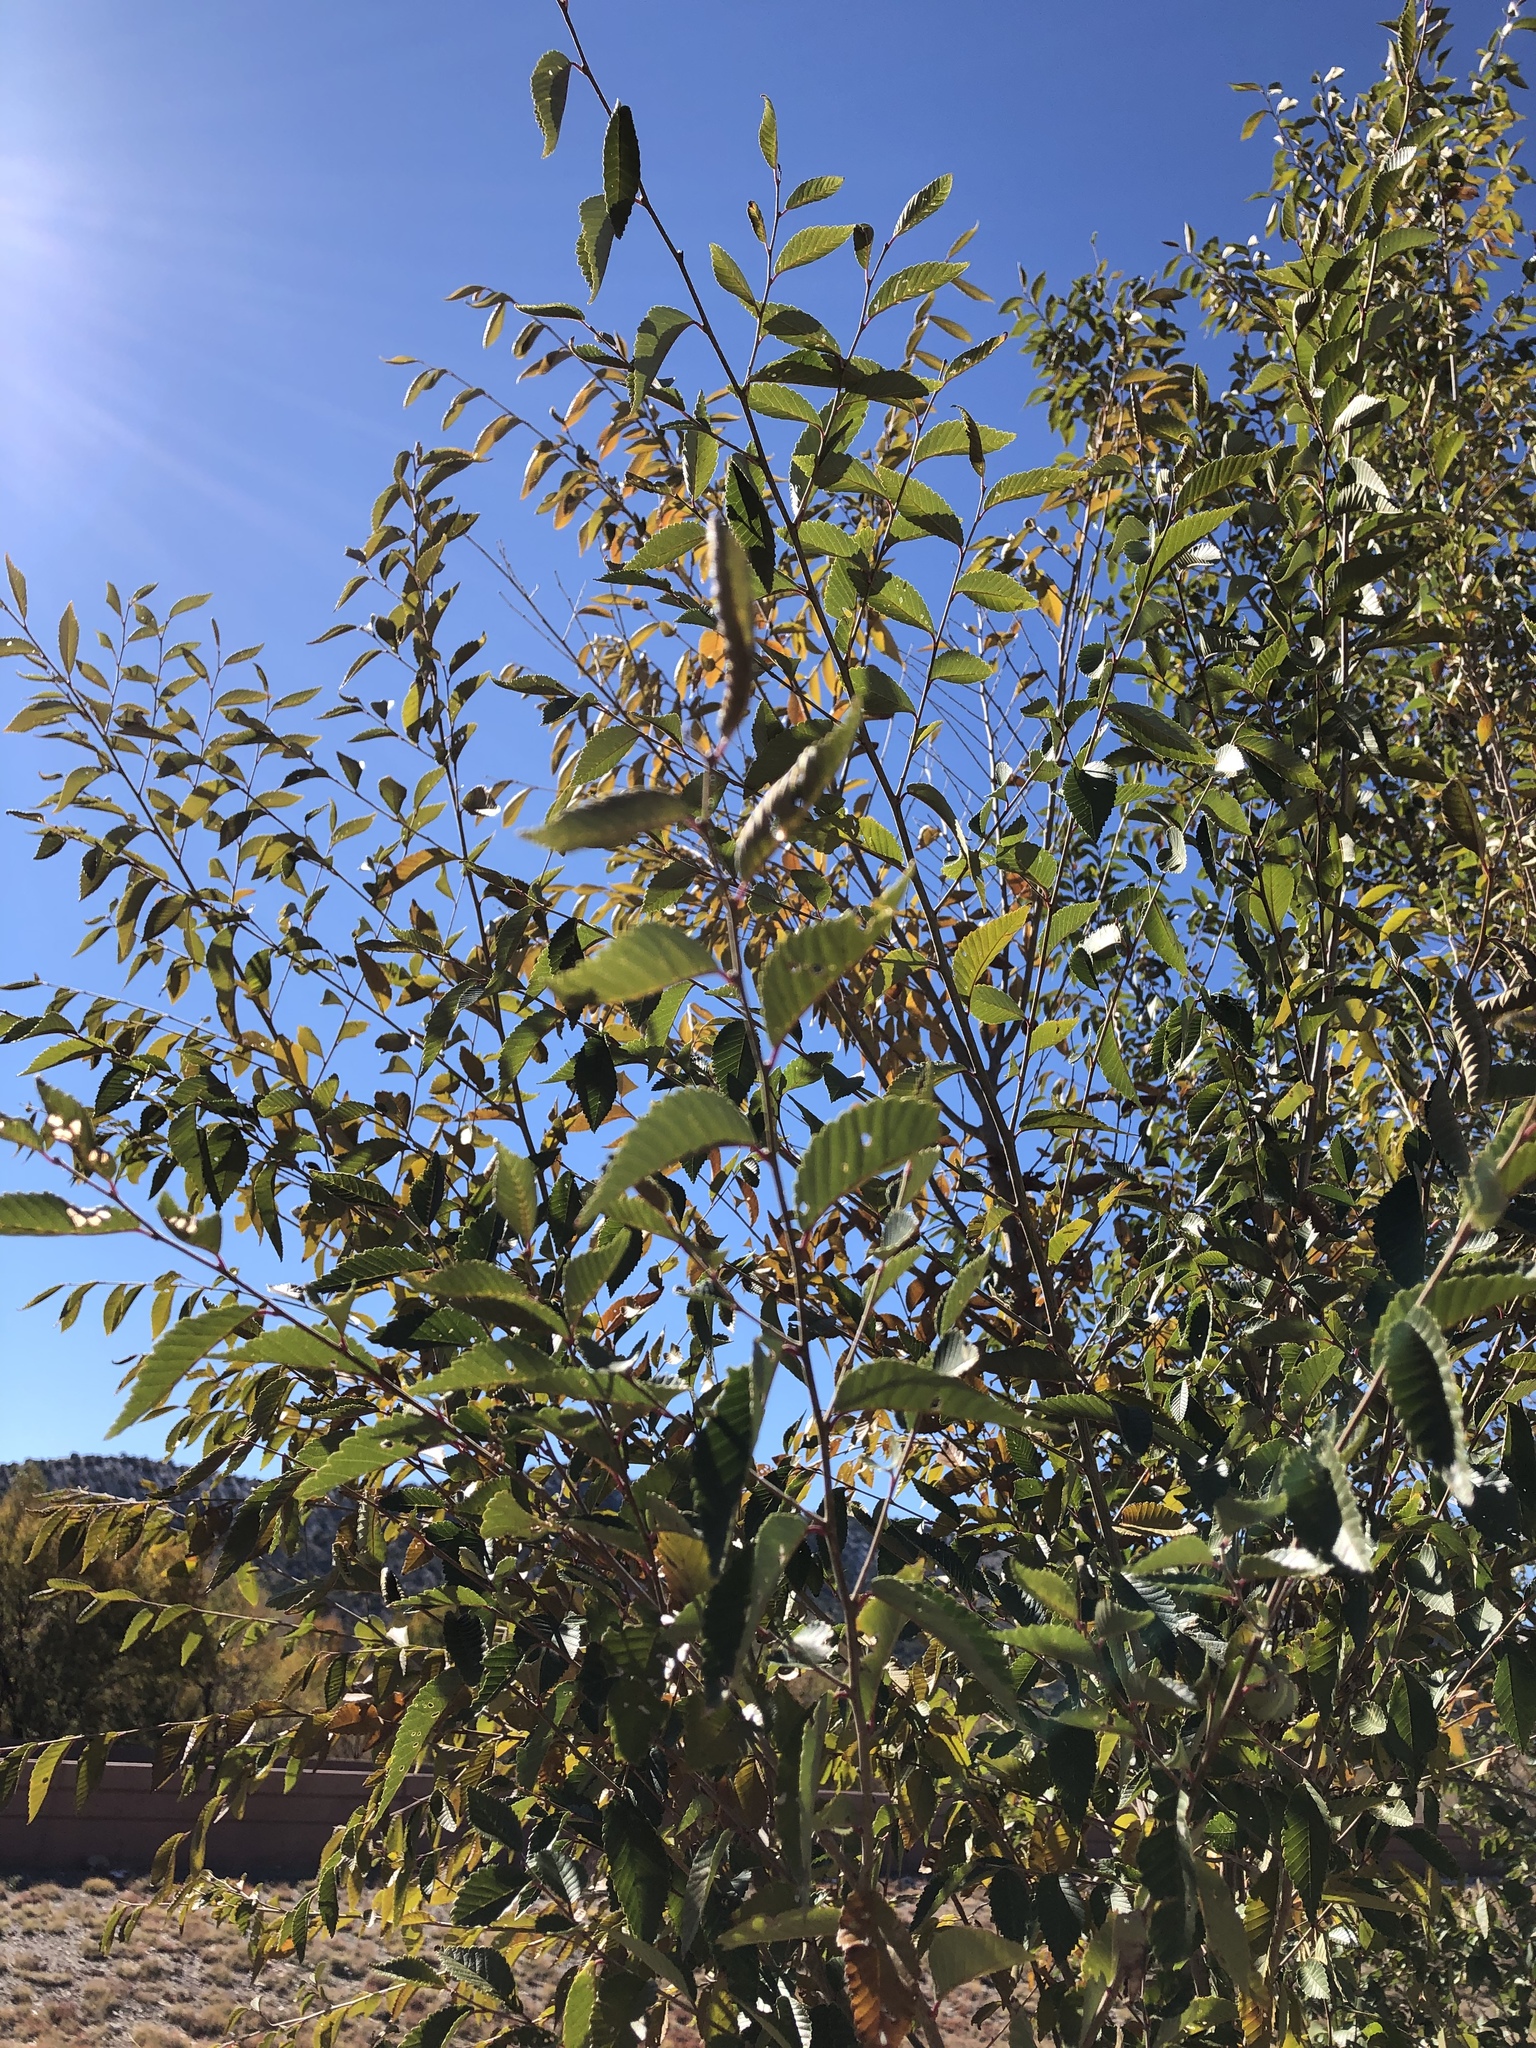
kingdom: Plantae
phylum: Tracheophyta
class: Magnoliopsida
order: Rosales
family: Ulmaceae
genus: Ulmus
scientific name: Ulmus pumila
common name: Siberian elm
